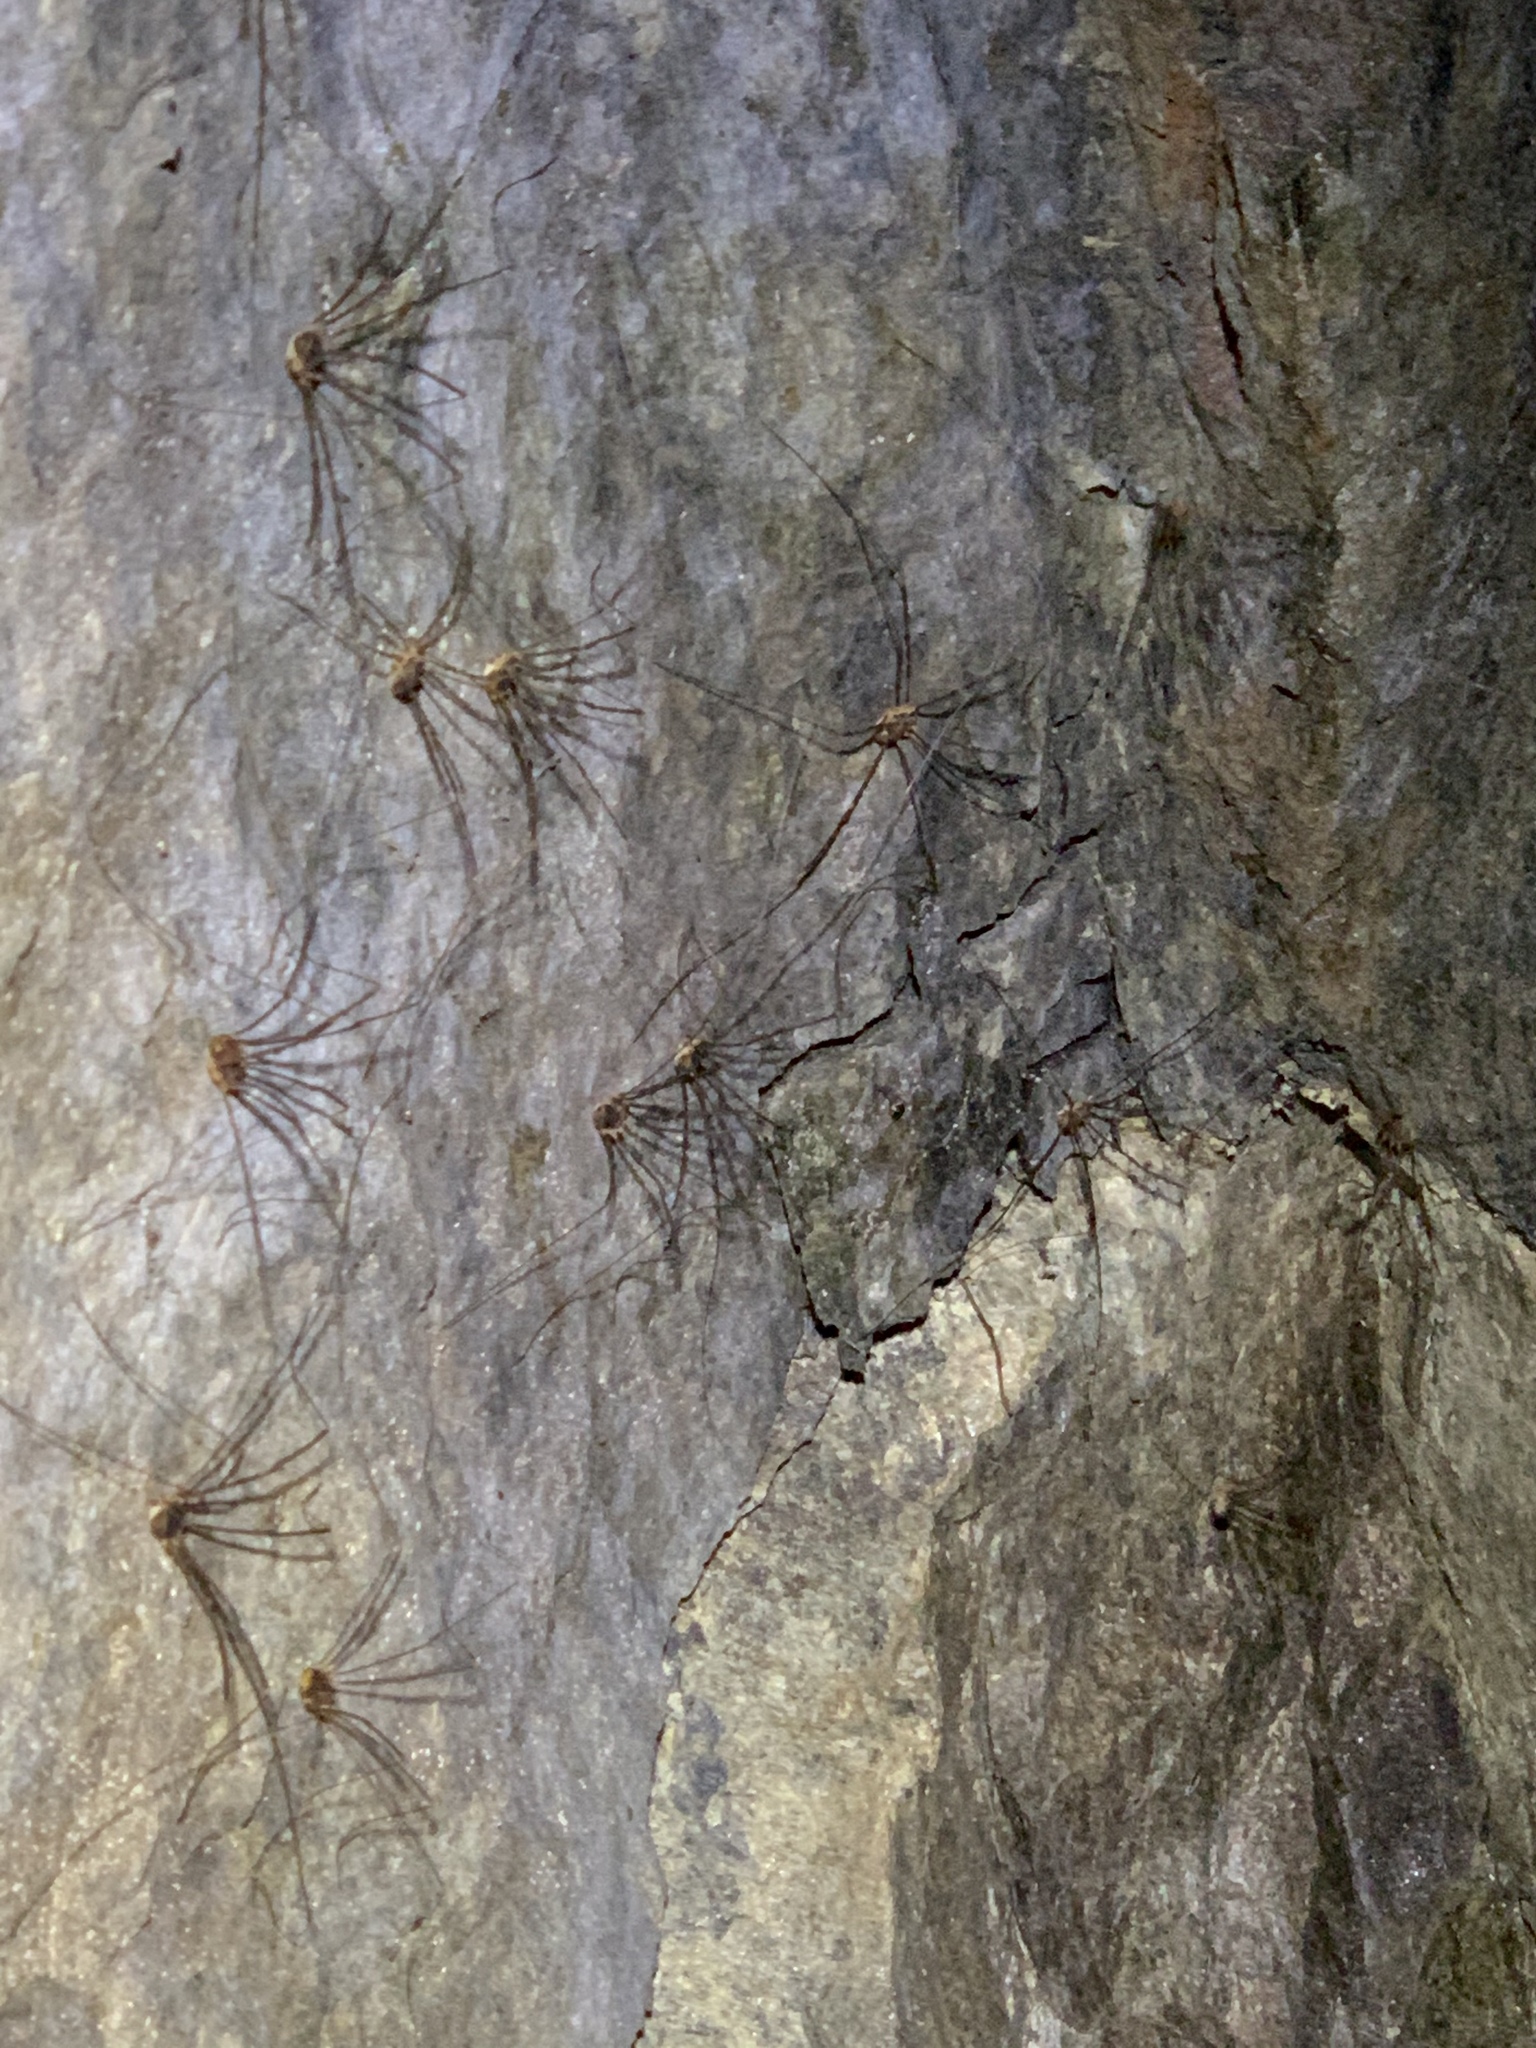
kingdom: Animalia
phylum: Arthropoda
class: Arachnida
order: Opiliones
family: Sclerosomatidae
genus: Nelima
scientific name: Nelima paessleri
